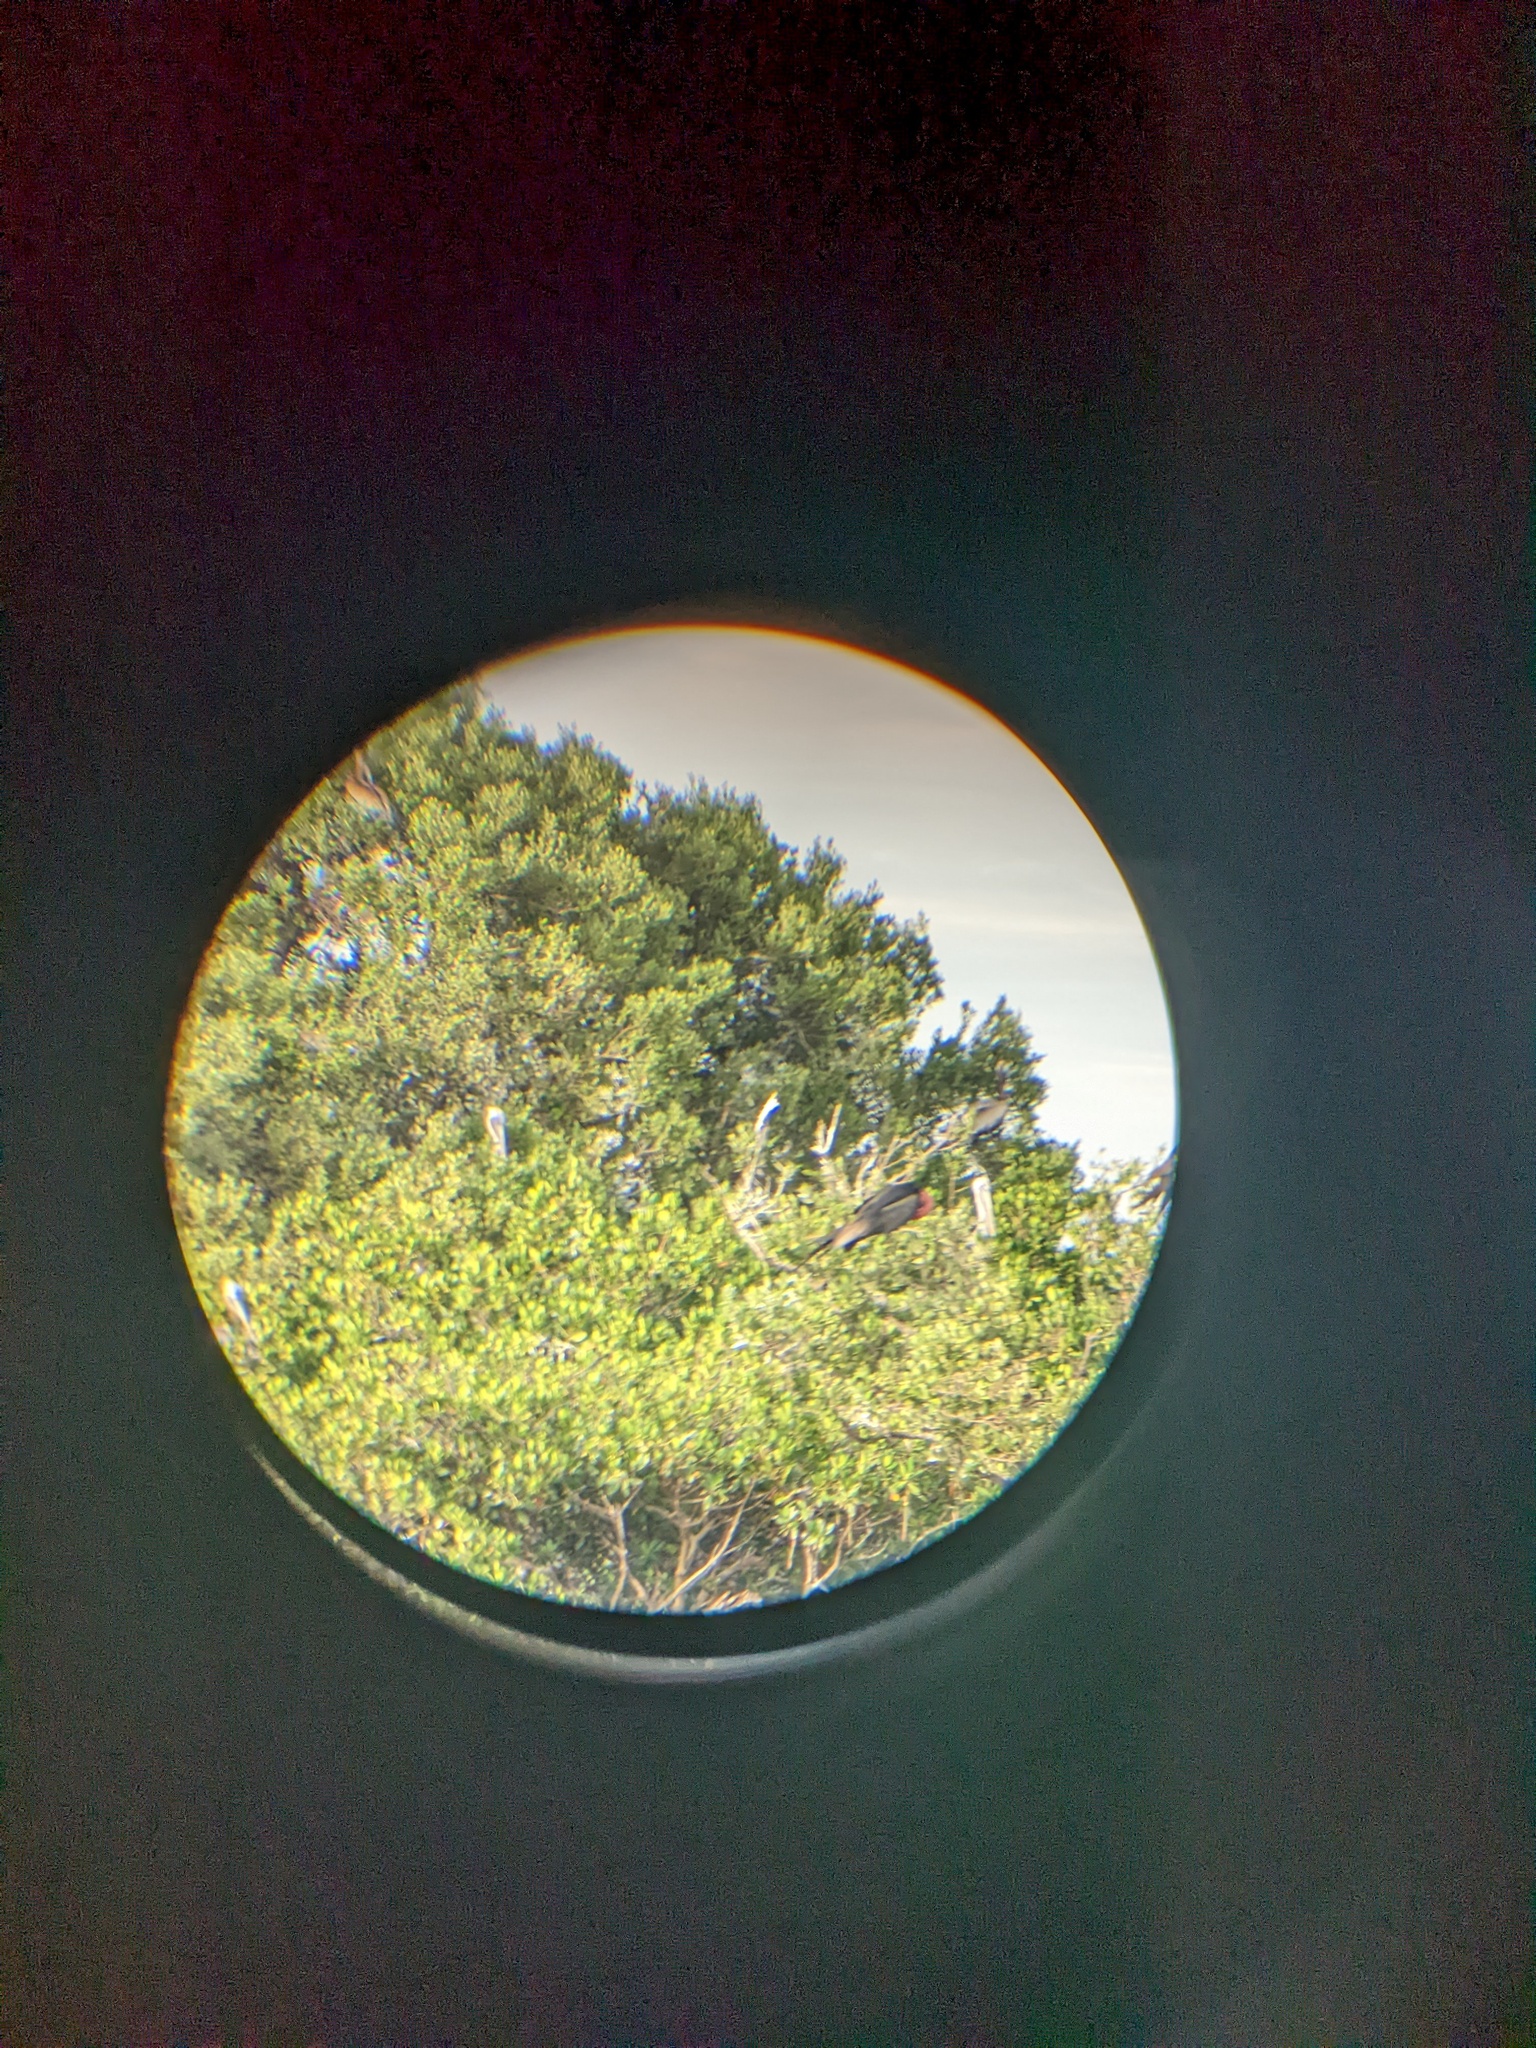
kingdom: Animalia
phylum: Chordata
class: Aves
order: Suliformes
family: Fregatidae
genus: Fregata
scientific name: Fregata magnificens
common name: Magnificent frigatebird
